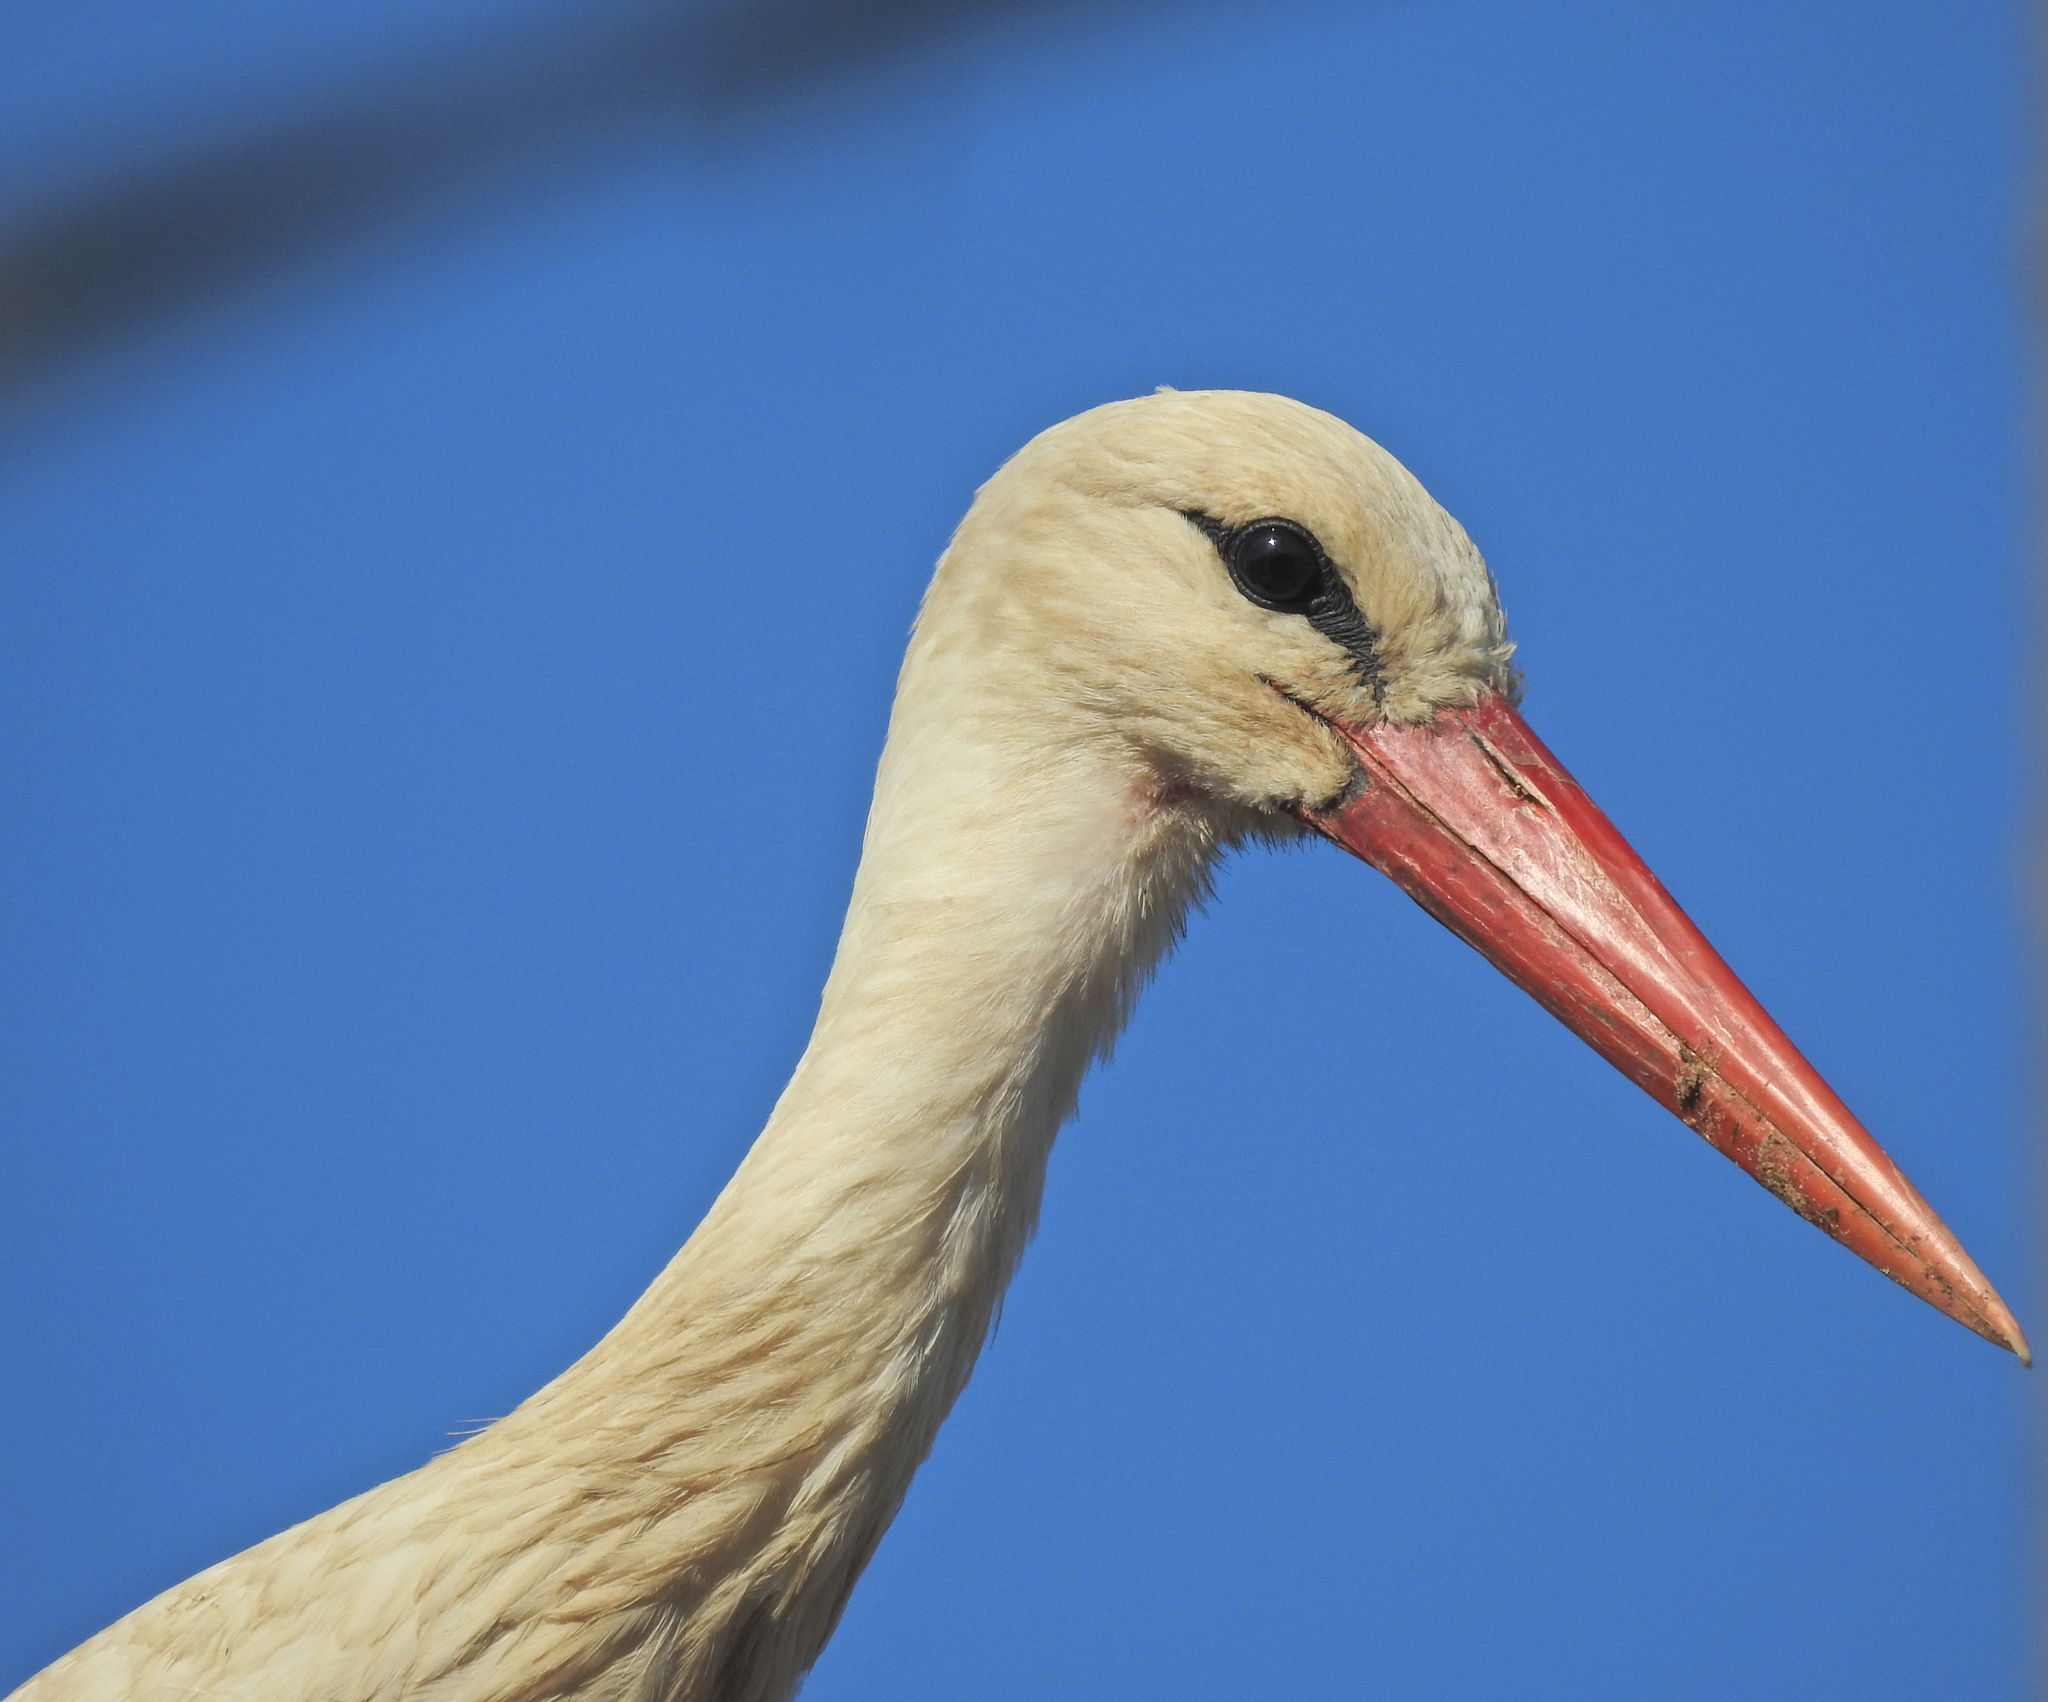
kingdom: Animalia
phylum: Chordata
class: Aves
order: Ciconiiformes
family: Ciconiidae
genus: Ciconia
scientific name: Ciconia ciconia
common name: White stork
